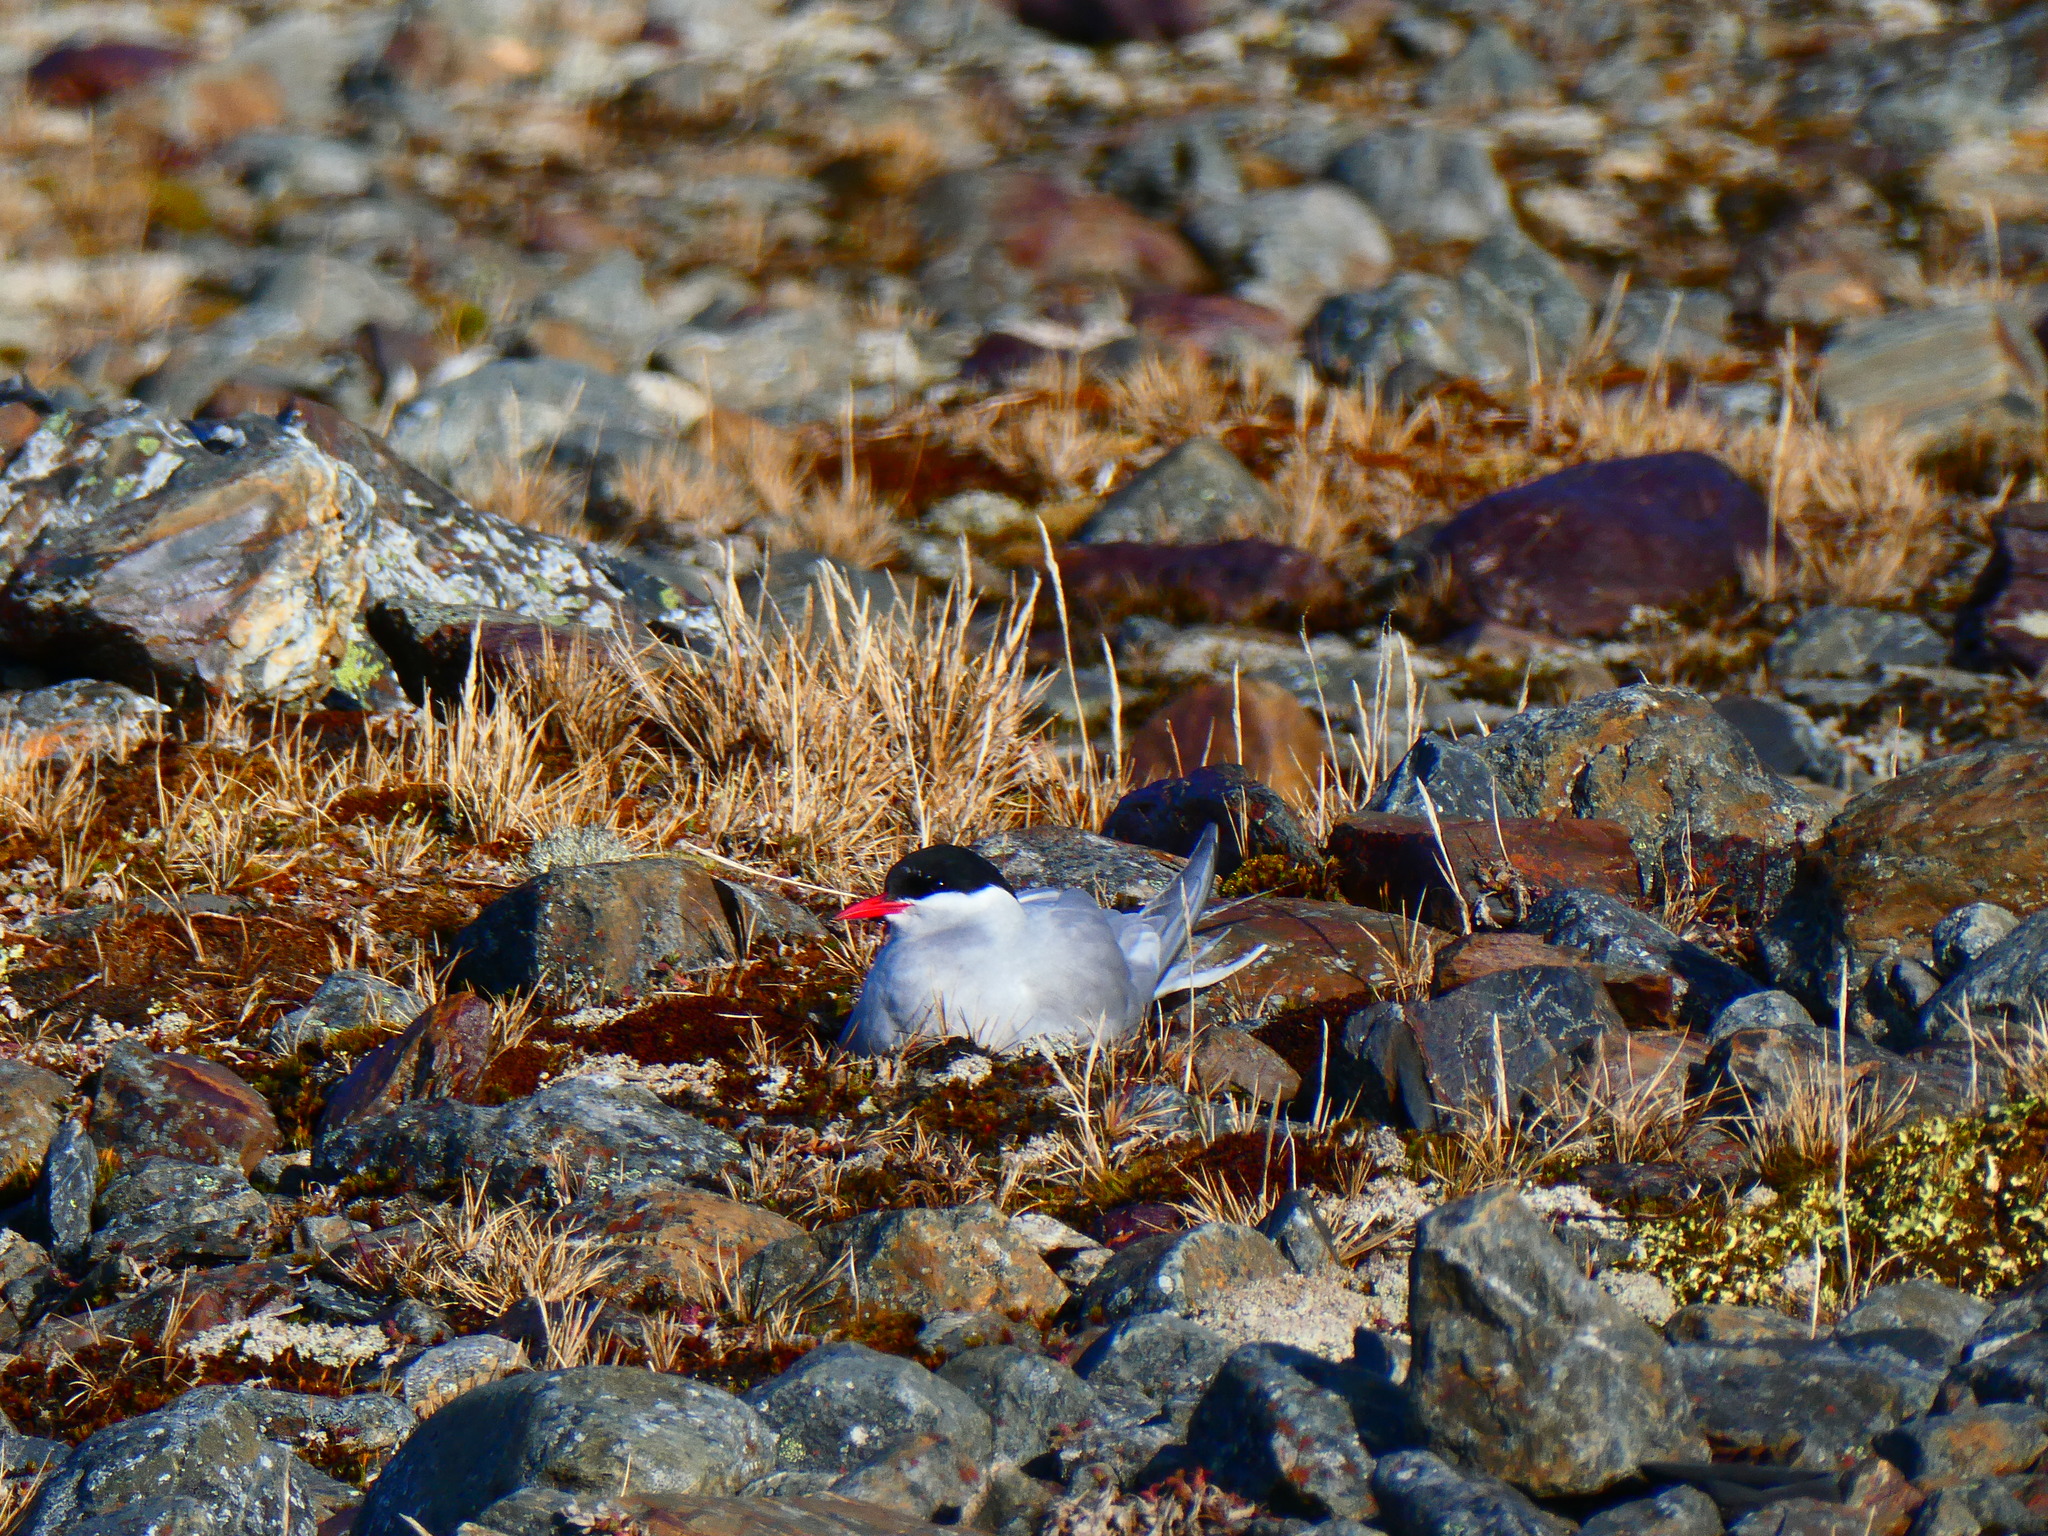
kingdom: Animalia
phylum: Chordata
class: Aves
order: Charadriiformes
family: Laridae
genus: Sterna
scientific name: Sterna vittata
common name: Antarctic tern
